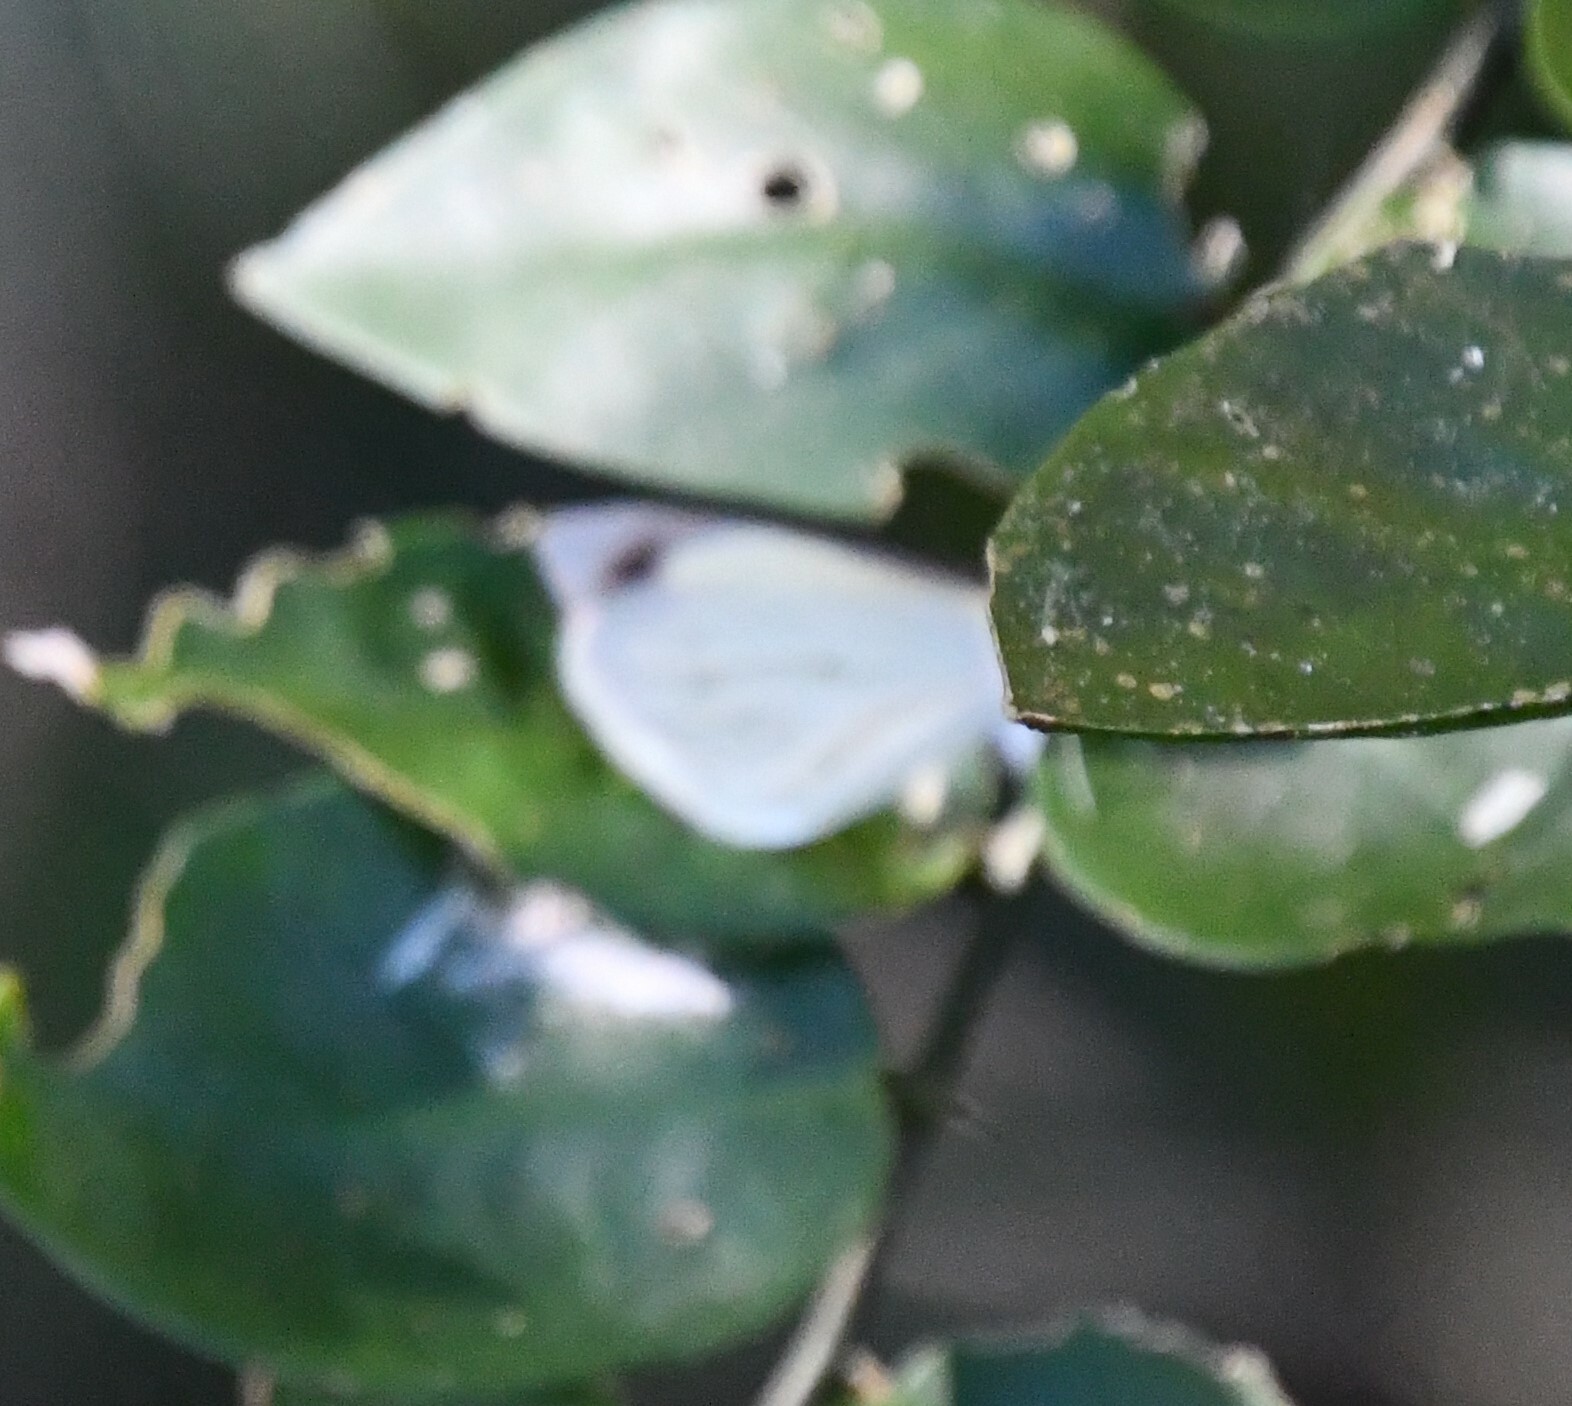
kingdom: Animalia
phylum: Arthropoda
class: Insecta
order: Lepidoptera
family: Pieridae
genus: Elodina
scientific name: Elodina angulipennis
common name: Common pearl white
